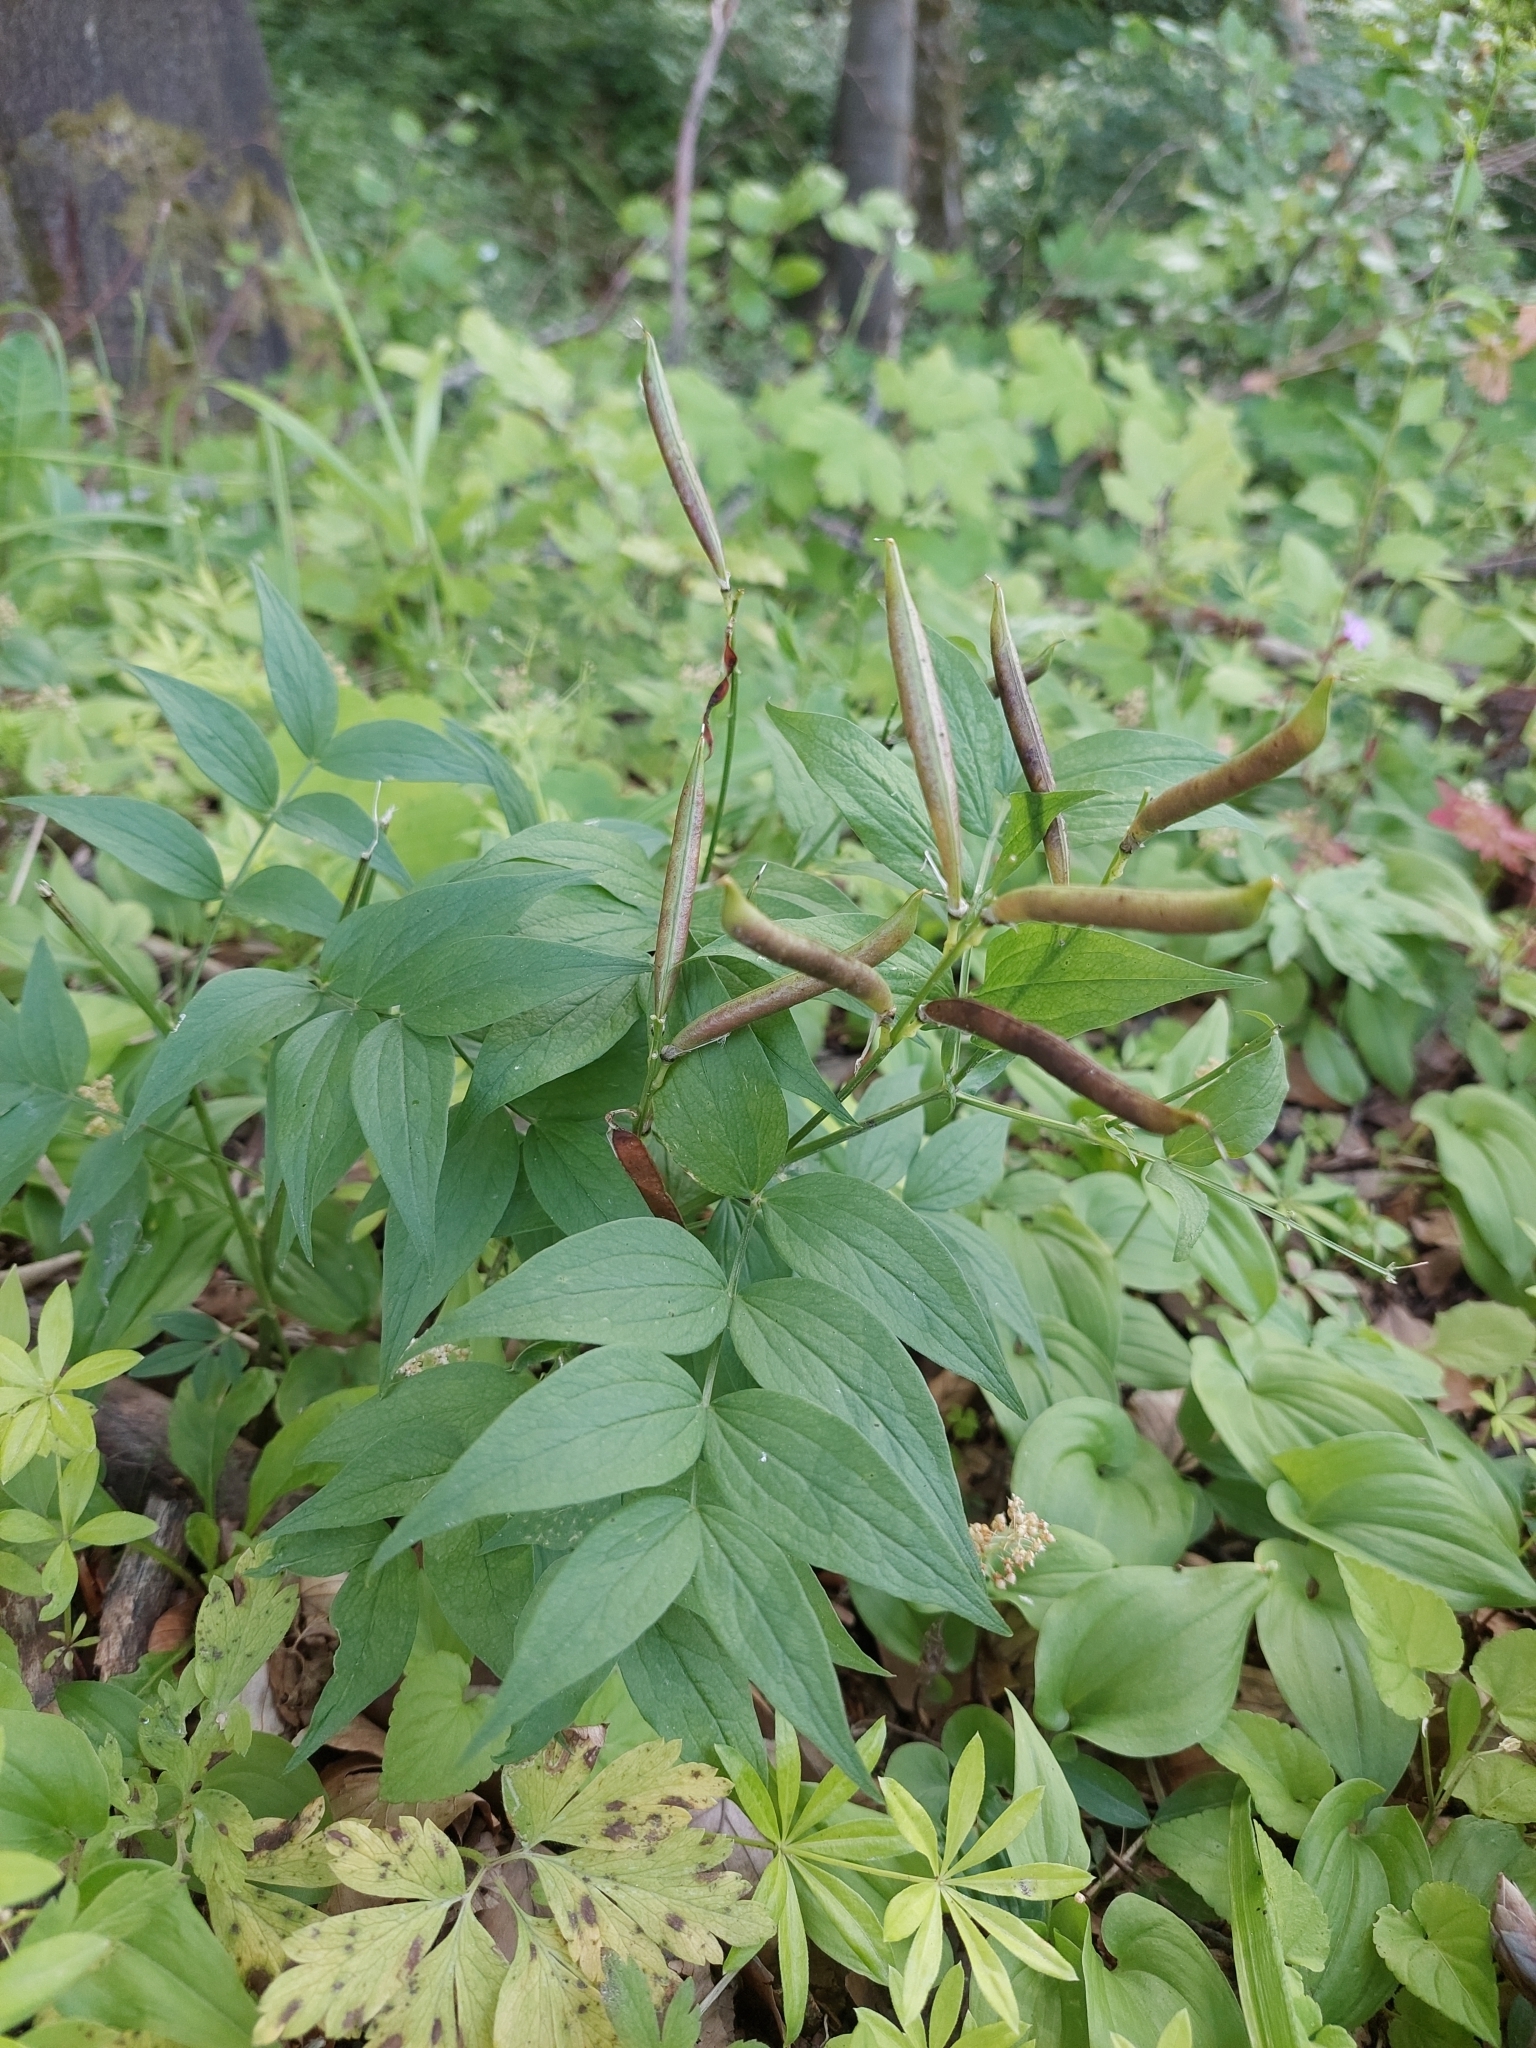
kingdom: Plantae
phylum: Tracheophyta
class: Magnoliopsida
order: Fabales
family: Fabaceae
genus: Lathyrus
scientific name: Lathyrus vernus
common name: Spring pea
